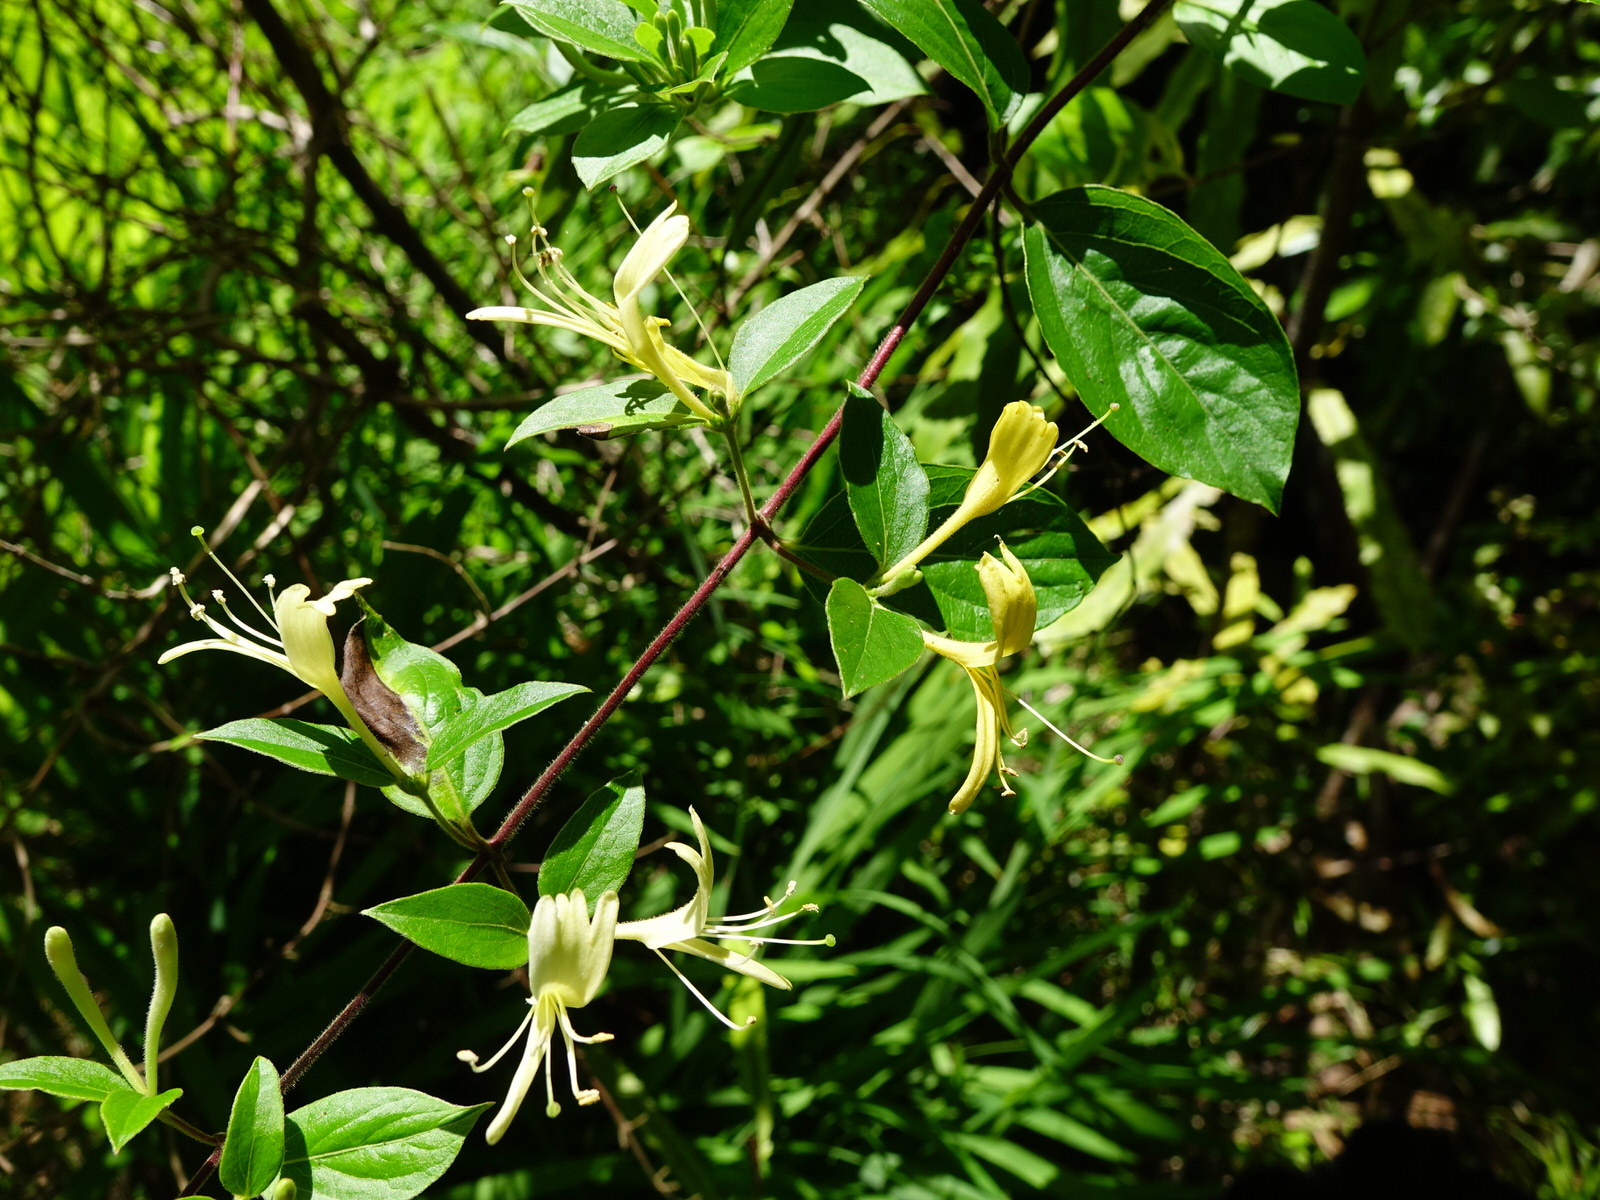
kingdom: Plantae
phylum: Tracheophyta
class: Magnoliopsida
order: Dipsacales
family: Caprifoliaceae
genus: Lonicera
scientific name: Lonicera japonica
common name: Japanese honeysuckle
